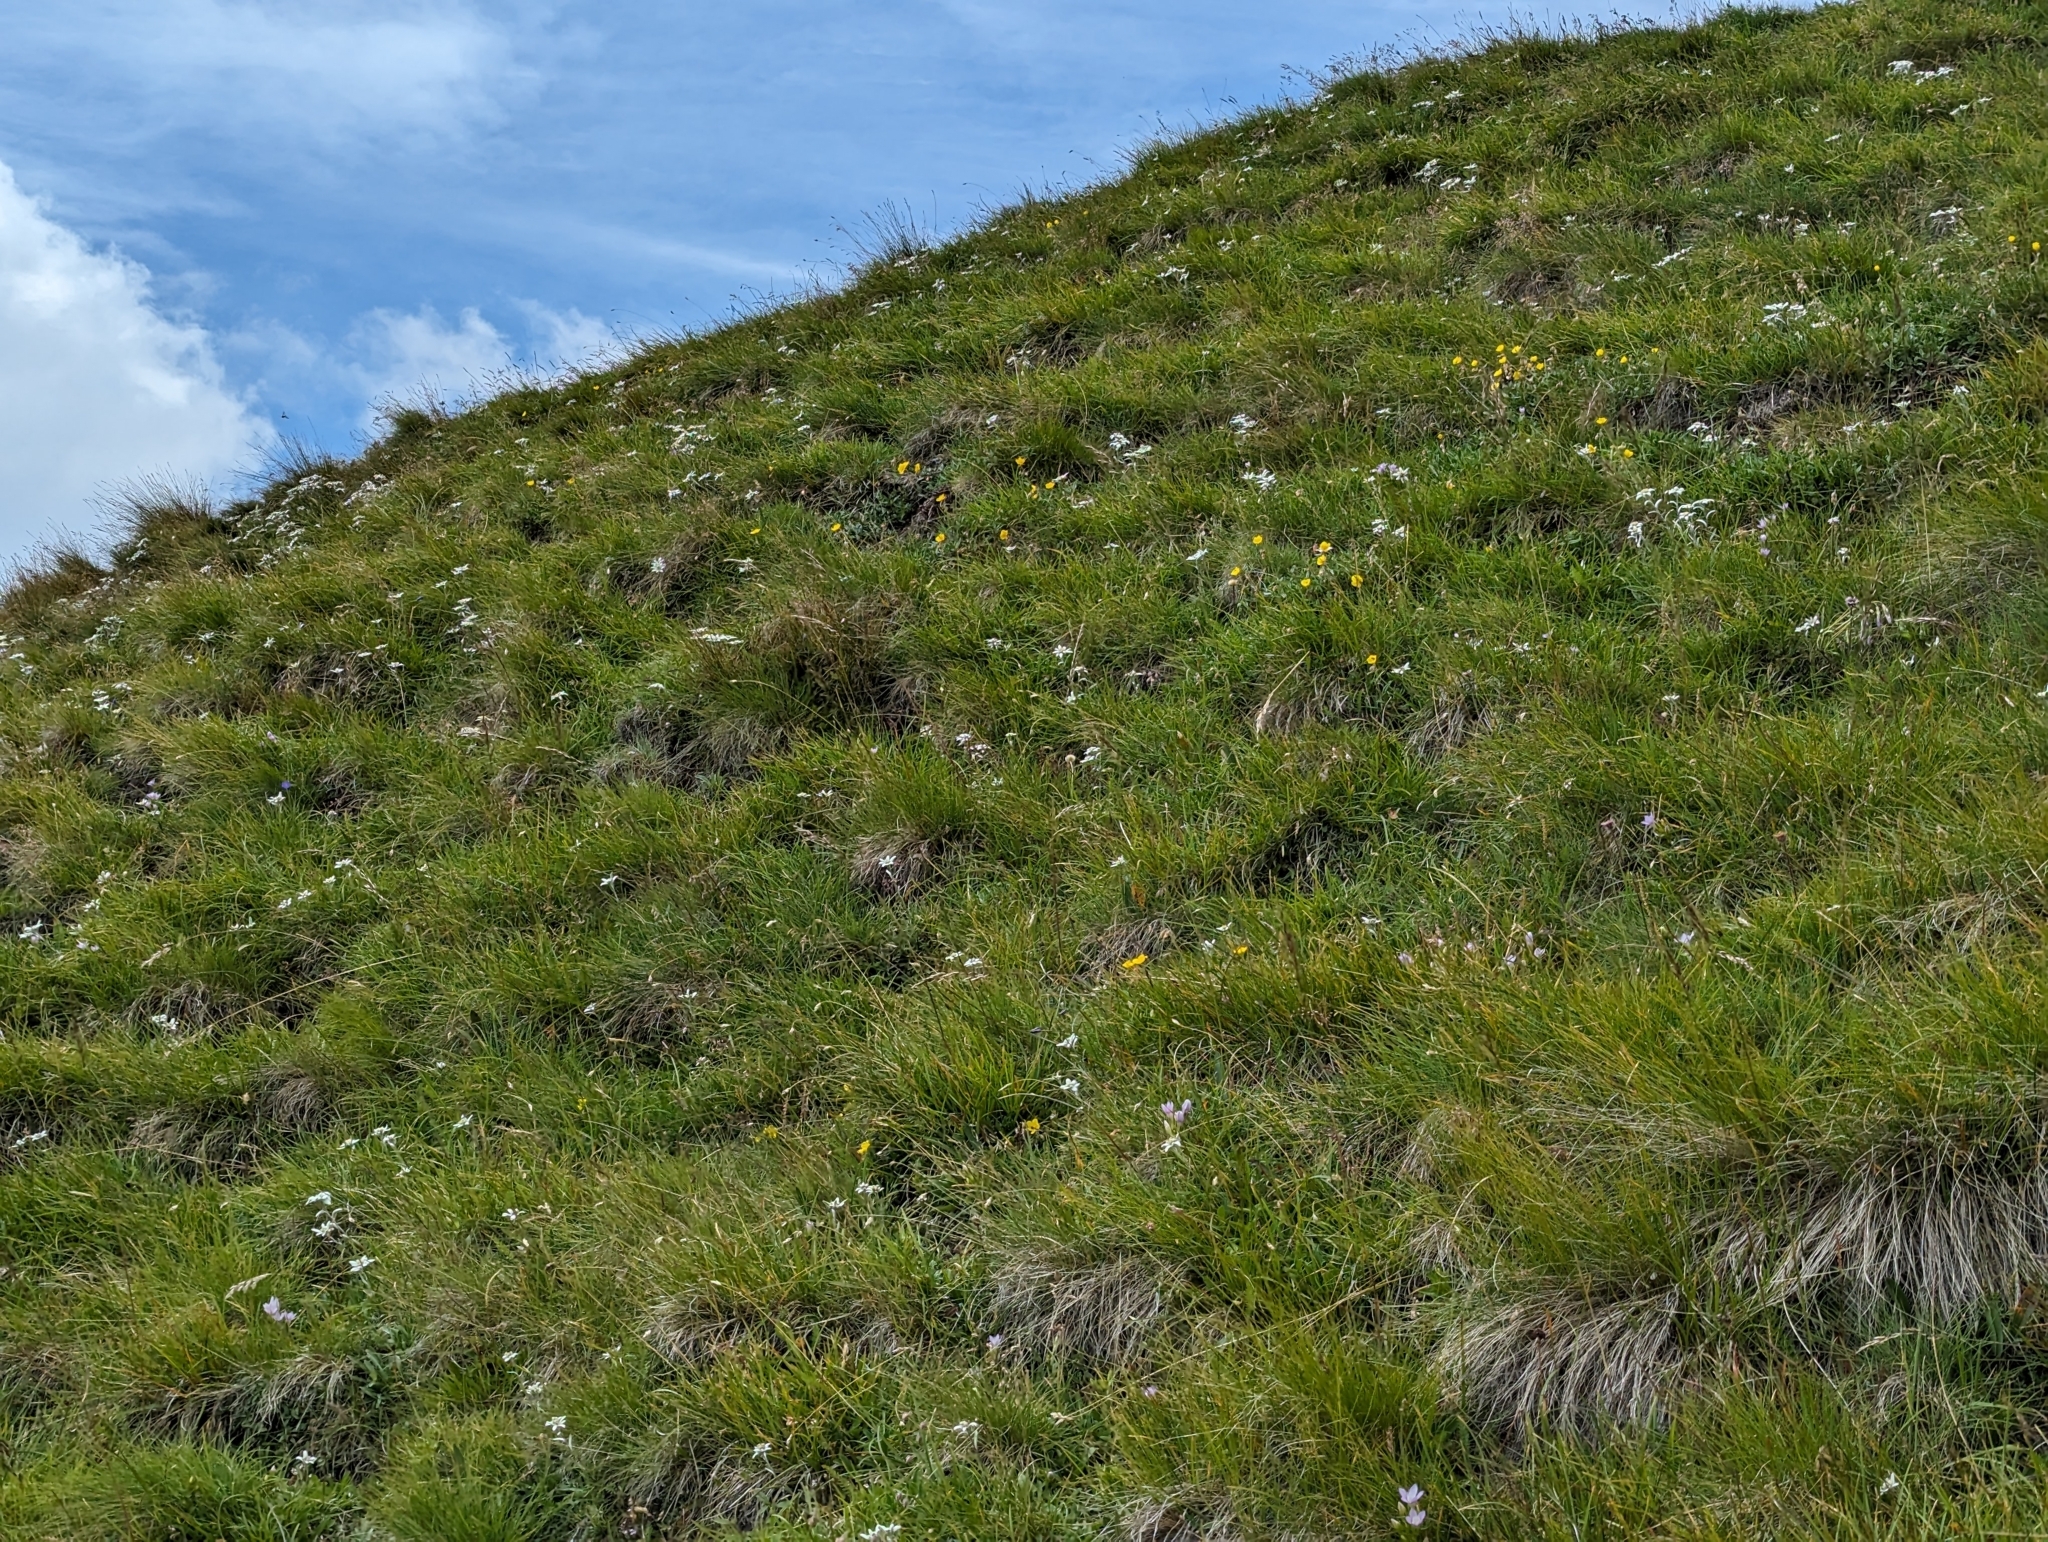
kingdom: Plantae
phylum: Tracheophyta
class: Magnoliopsida
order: Asterales
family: Asteraceae
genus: Leontopodium
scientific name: Leontopodium nivale
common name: Edelweiss
